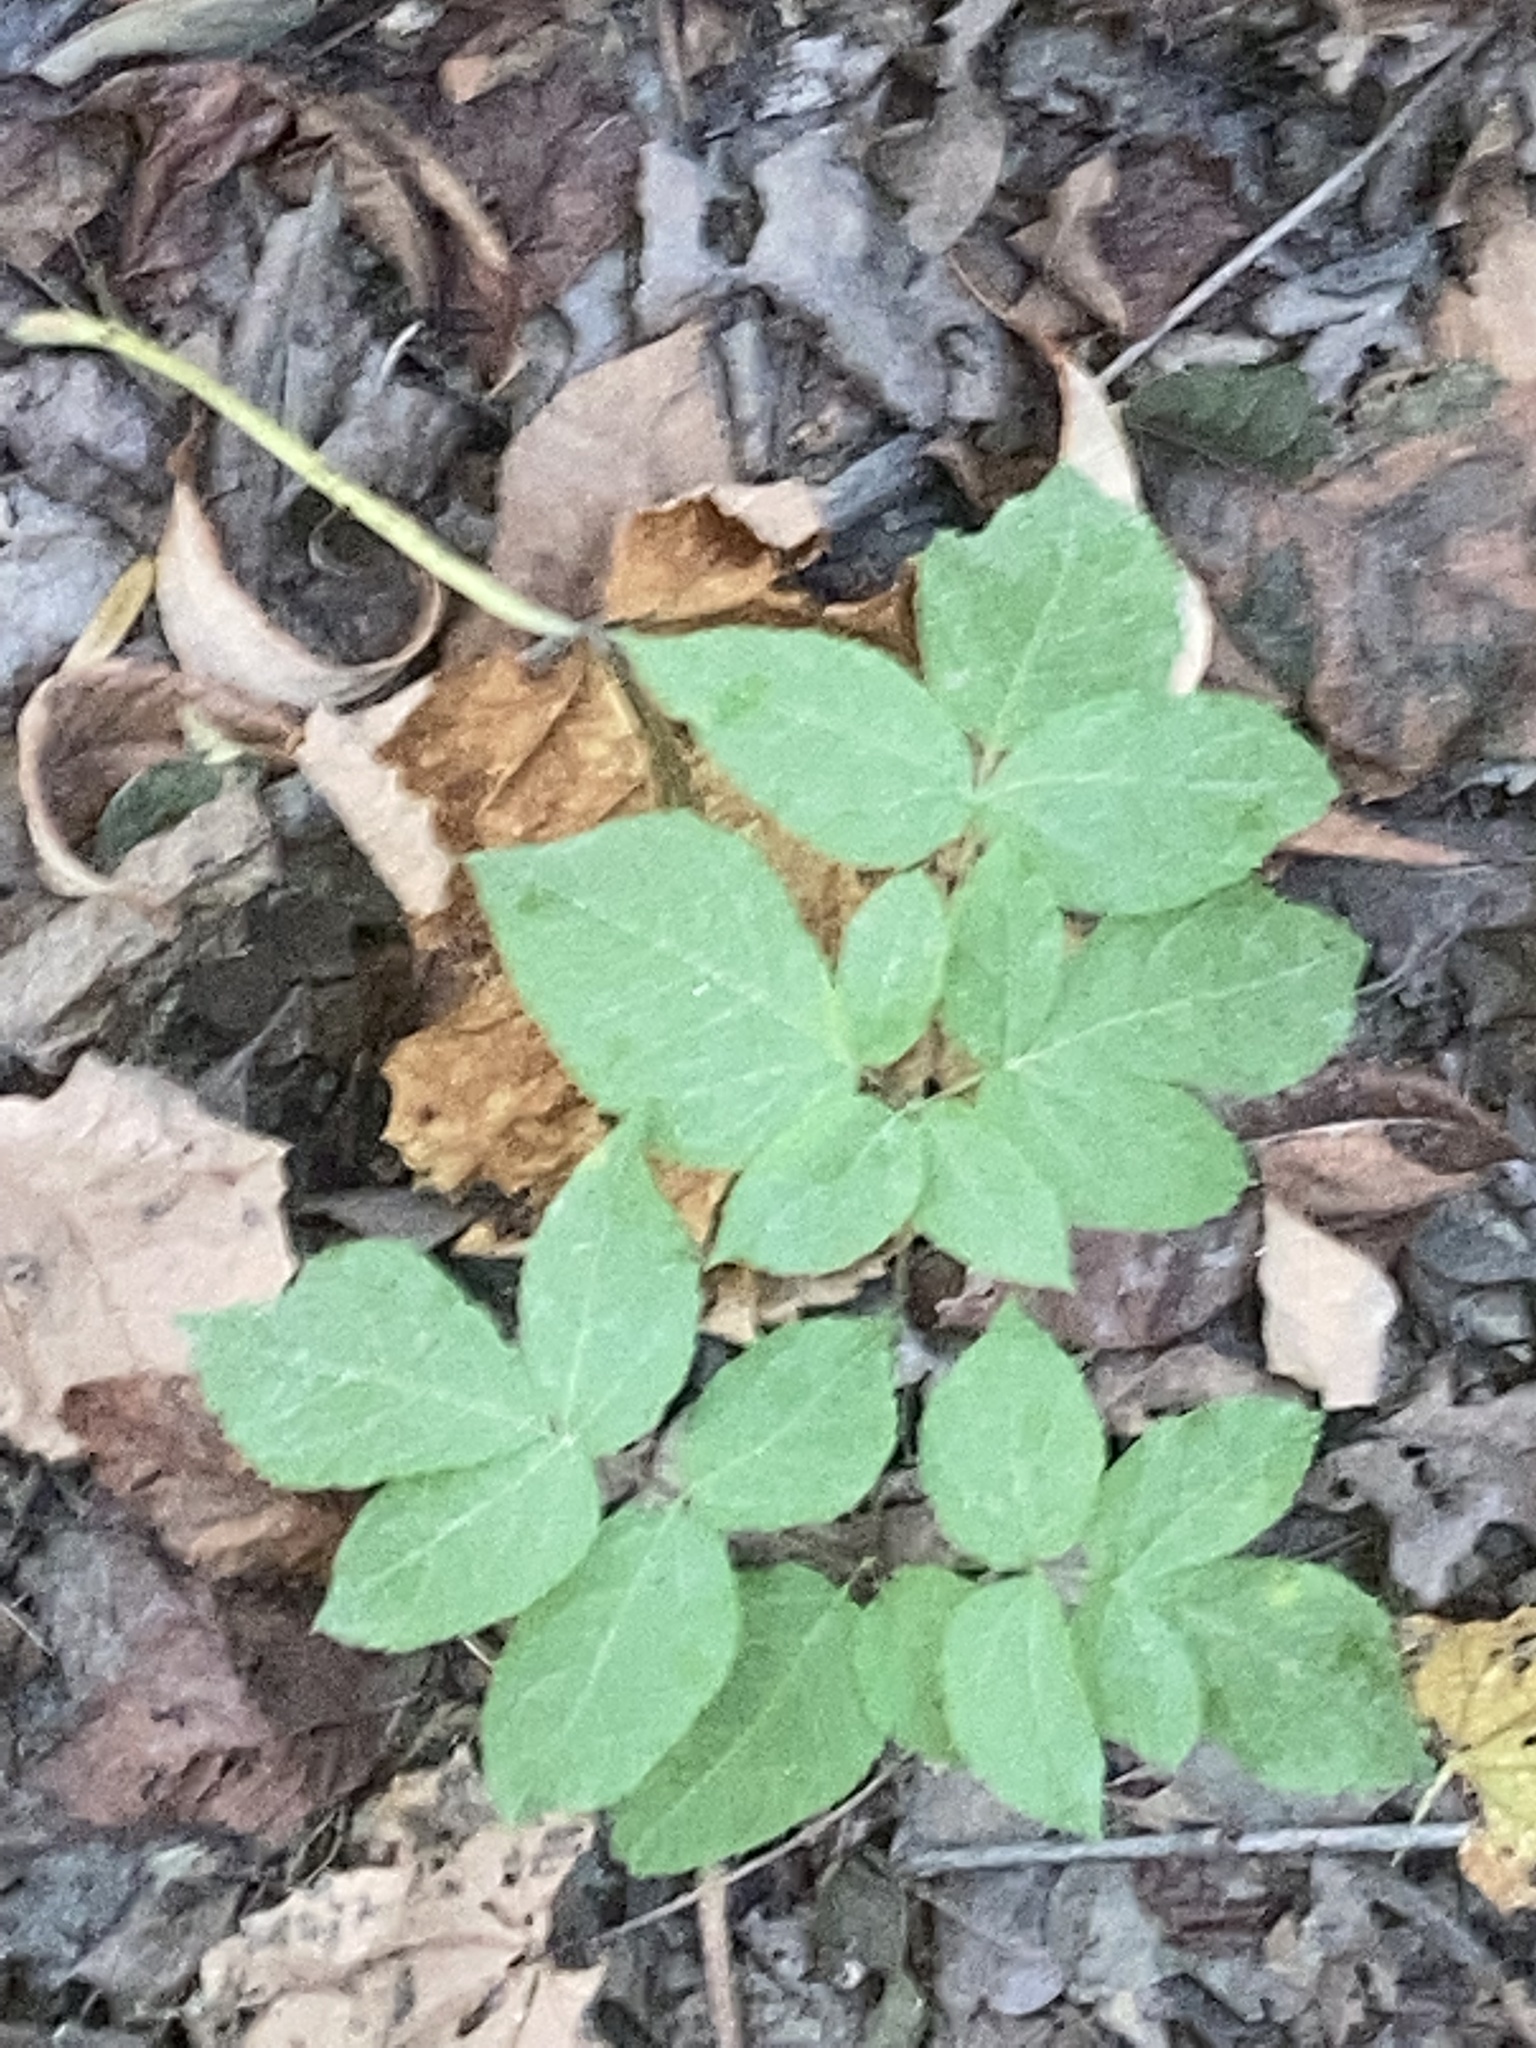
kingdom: Plantae
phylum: Tracheophyta
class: Magnoliopsida
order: Apiales
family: Araliaceae
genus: Aralia
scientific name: Aralia racemosa
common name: American-spikenard
